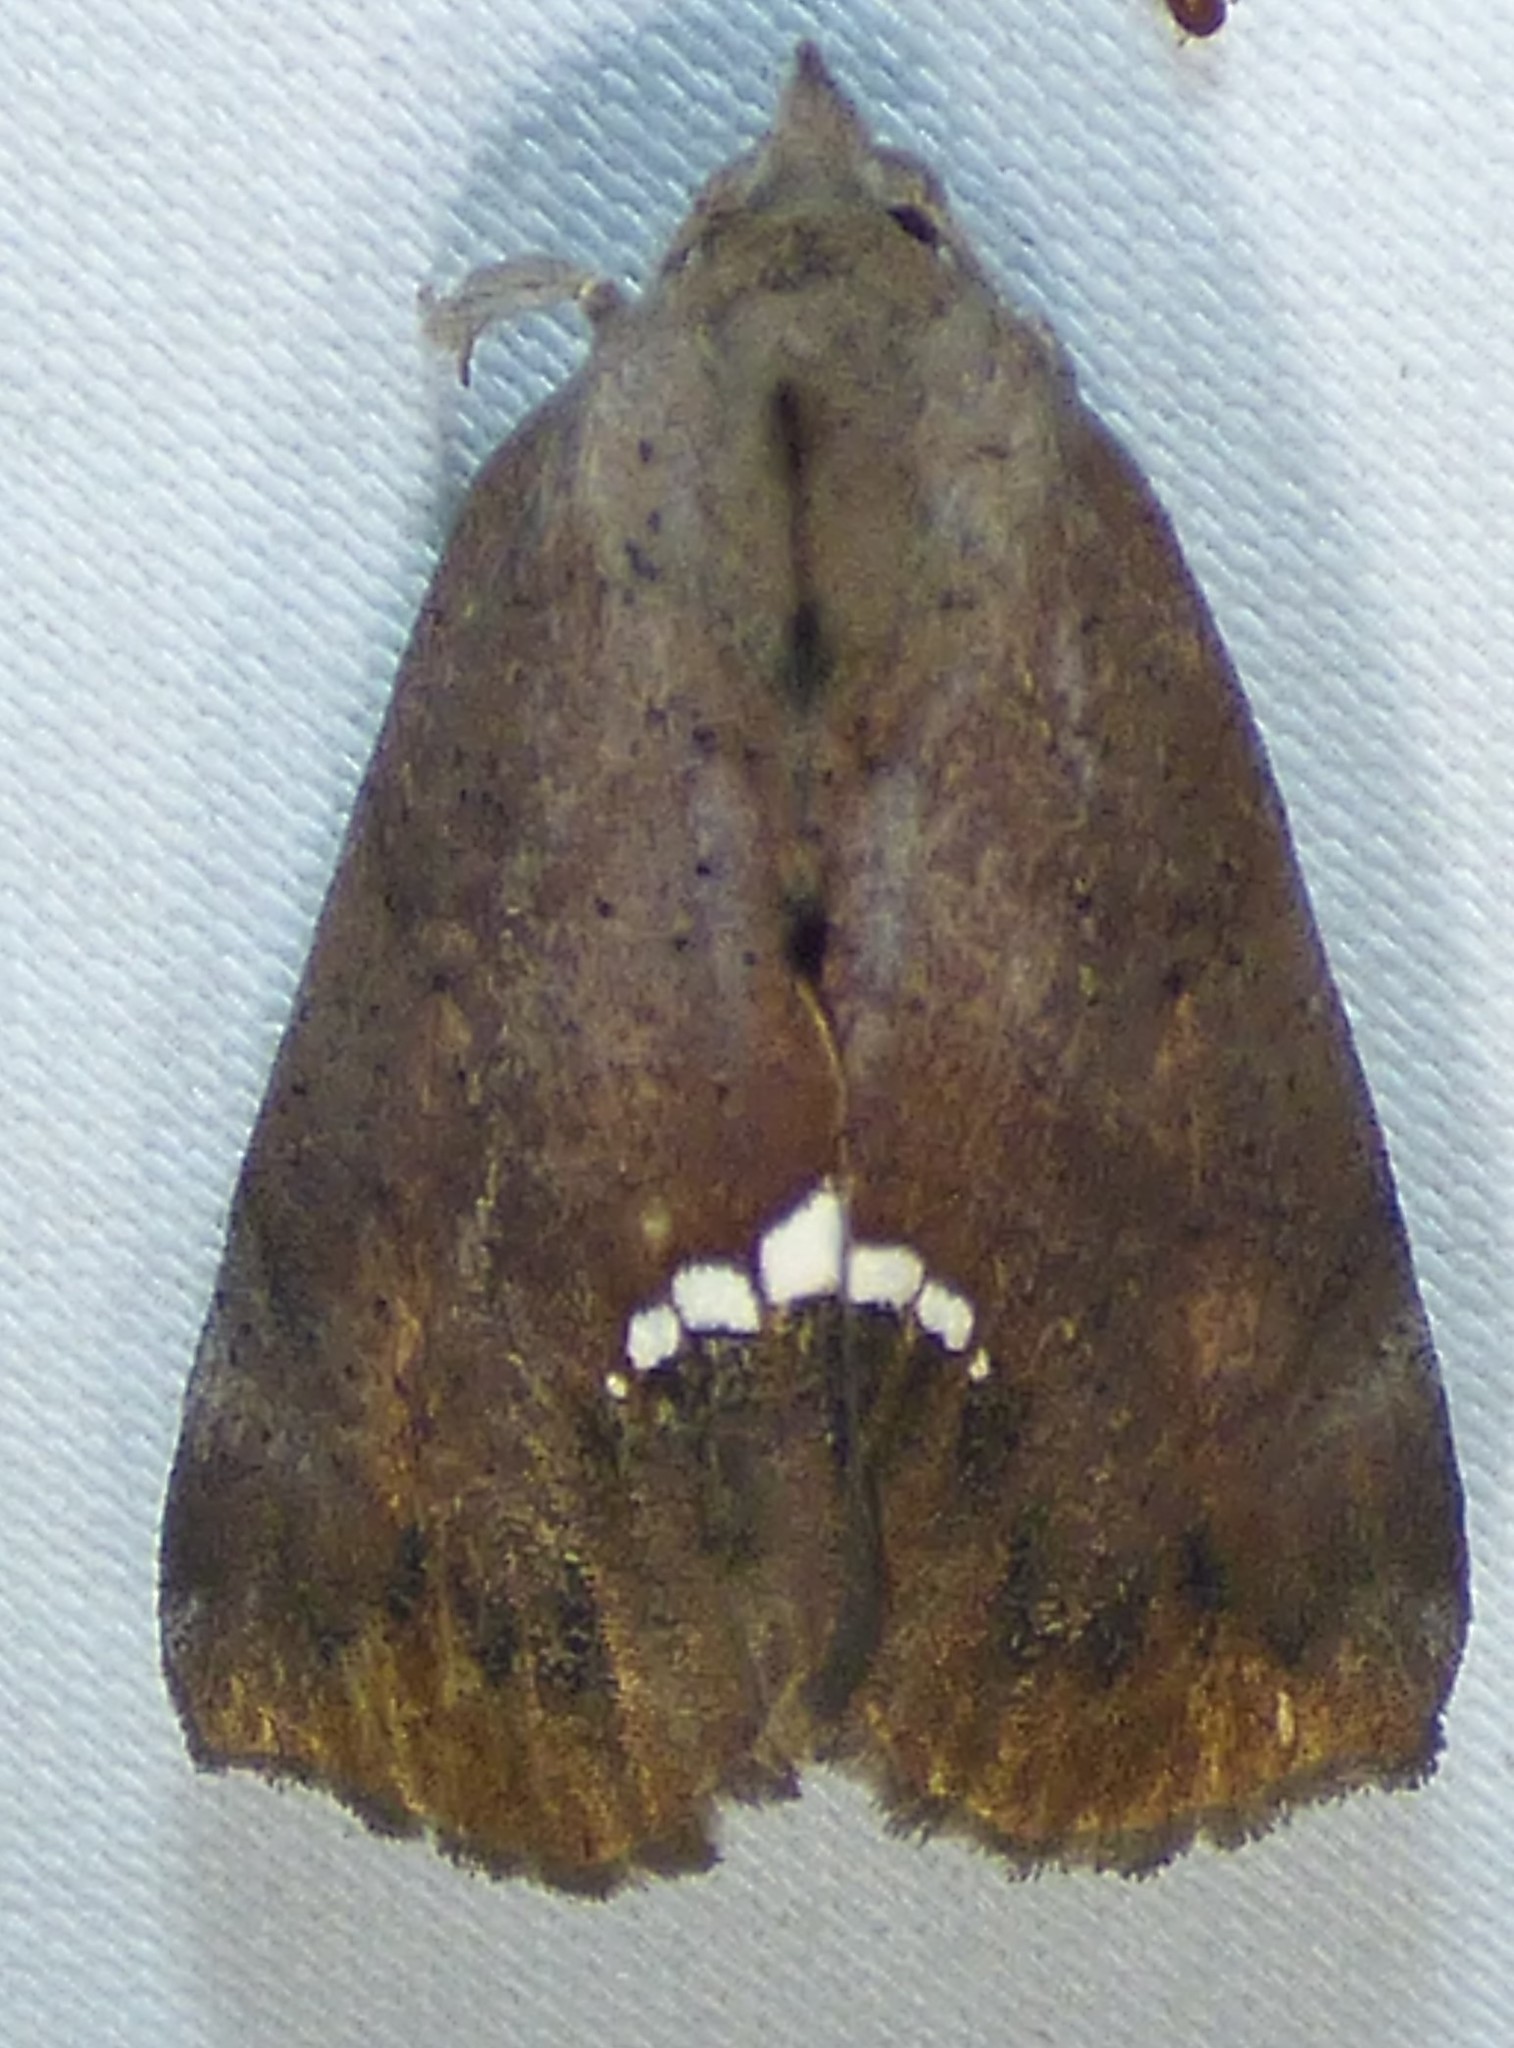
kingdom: Animalia
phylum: Arthropoda
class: Insecta
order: Lepidoptera
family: Erebidae
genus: Hypsoropha
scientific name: Hypsoropha hormos
